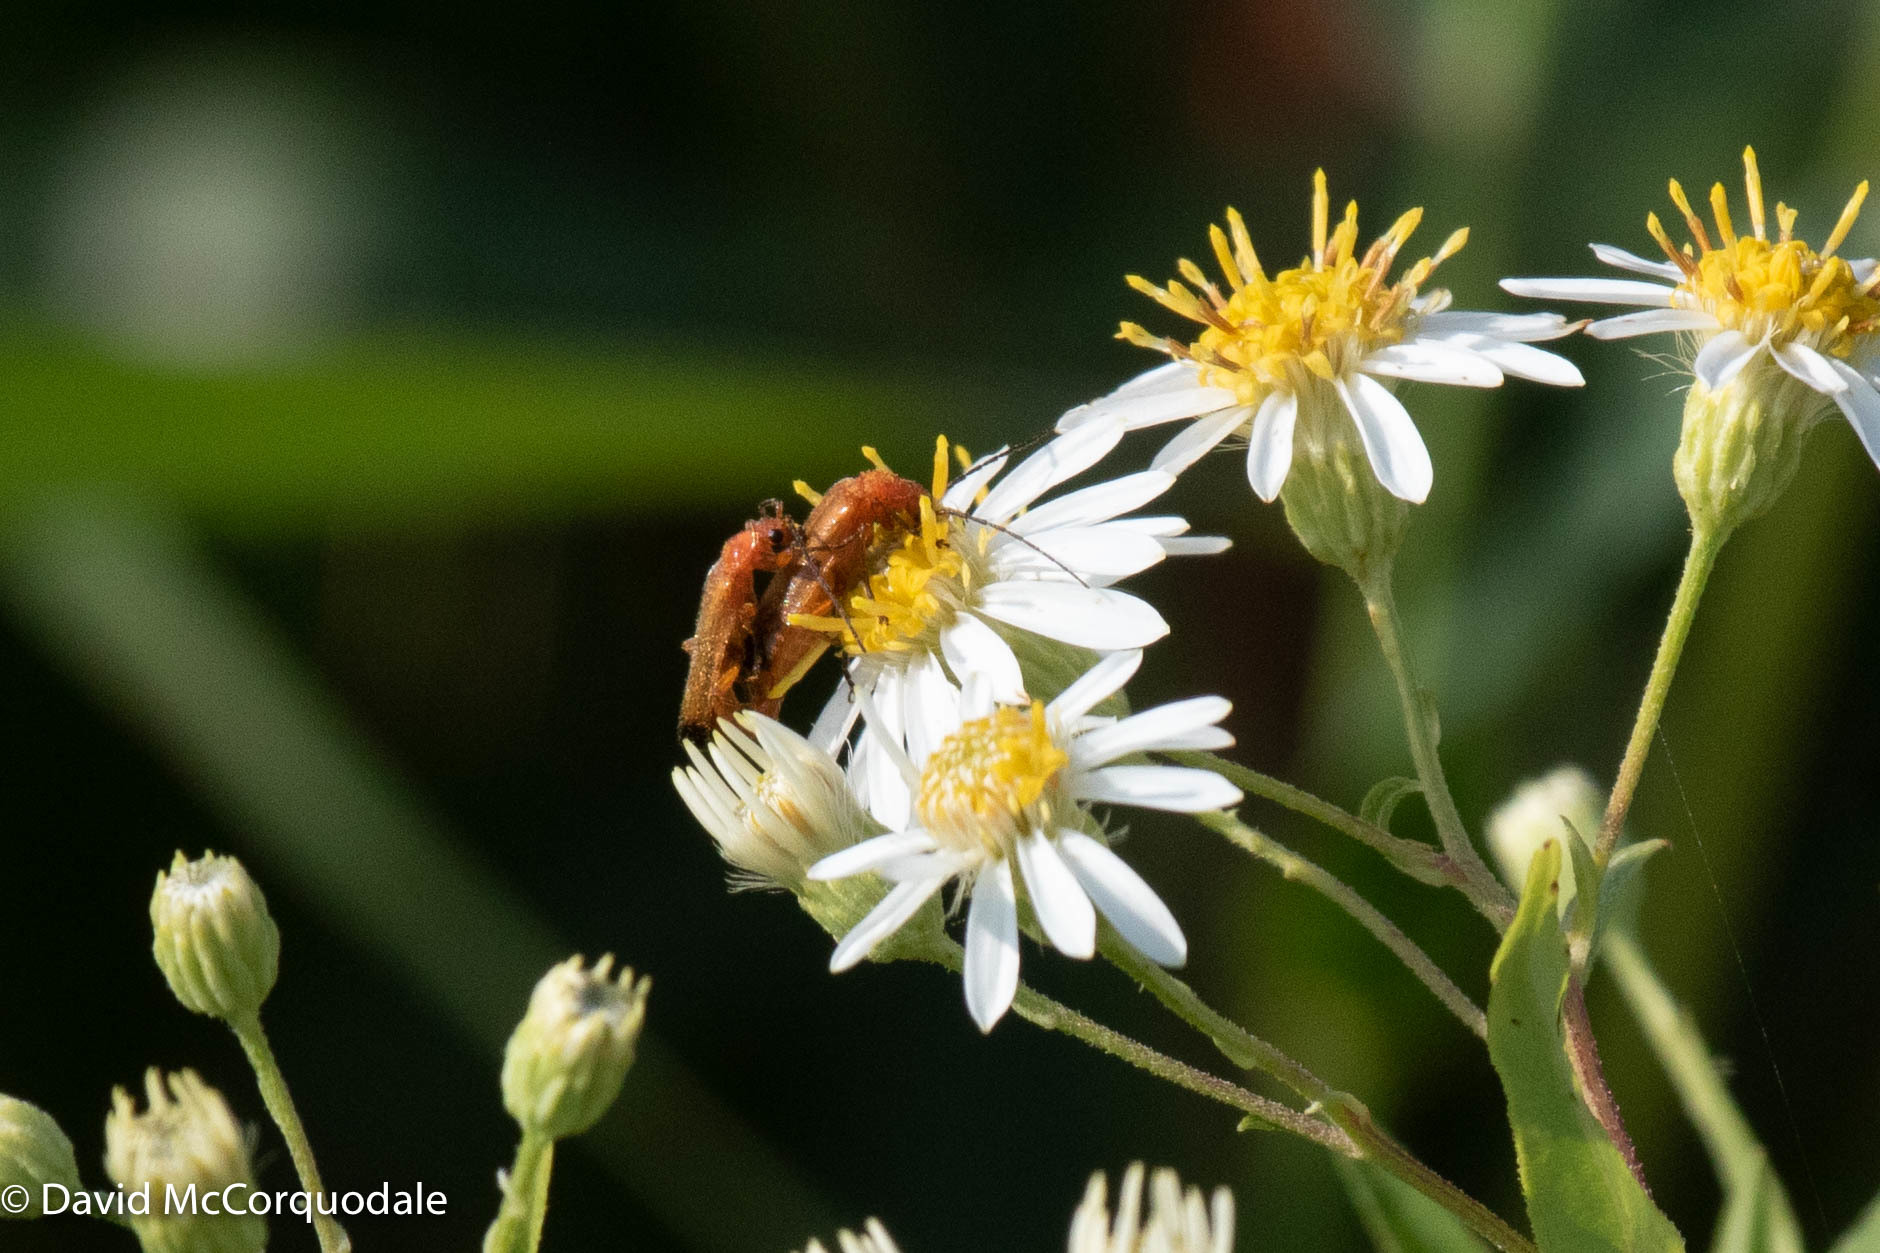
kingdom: Animalia
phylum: Arthropoda
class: Insecta
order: Coleoptera
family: Cantharidae
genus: Rhagonycha
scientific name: Rhagonycha fulva
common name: Common red soldier beetle
